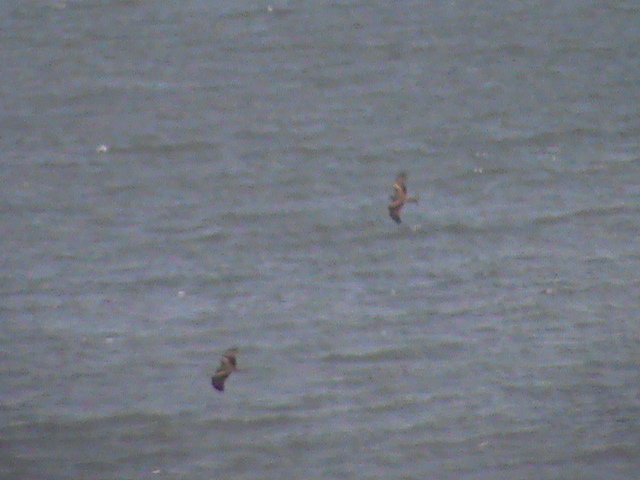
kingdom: Animalia
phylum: Chordata
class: Aves
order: Accipitriformes
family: Accipitridae
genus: Milvus
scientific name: Milvus migrans
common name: Black kite
